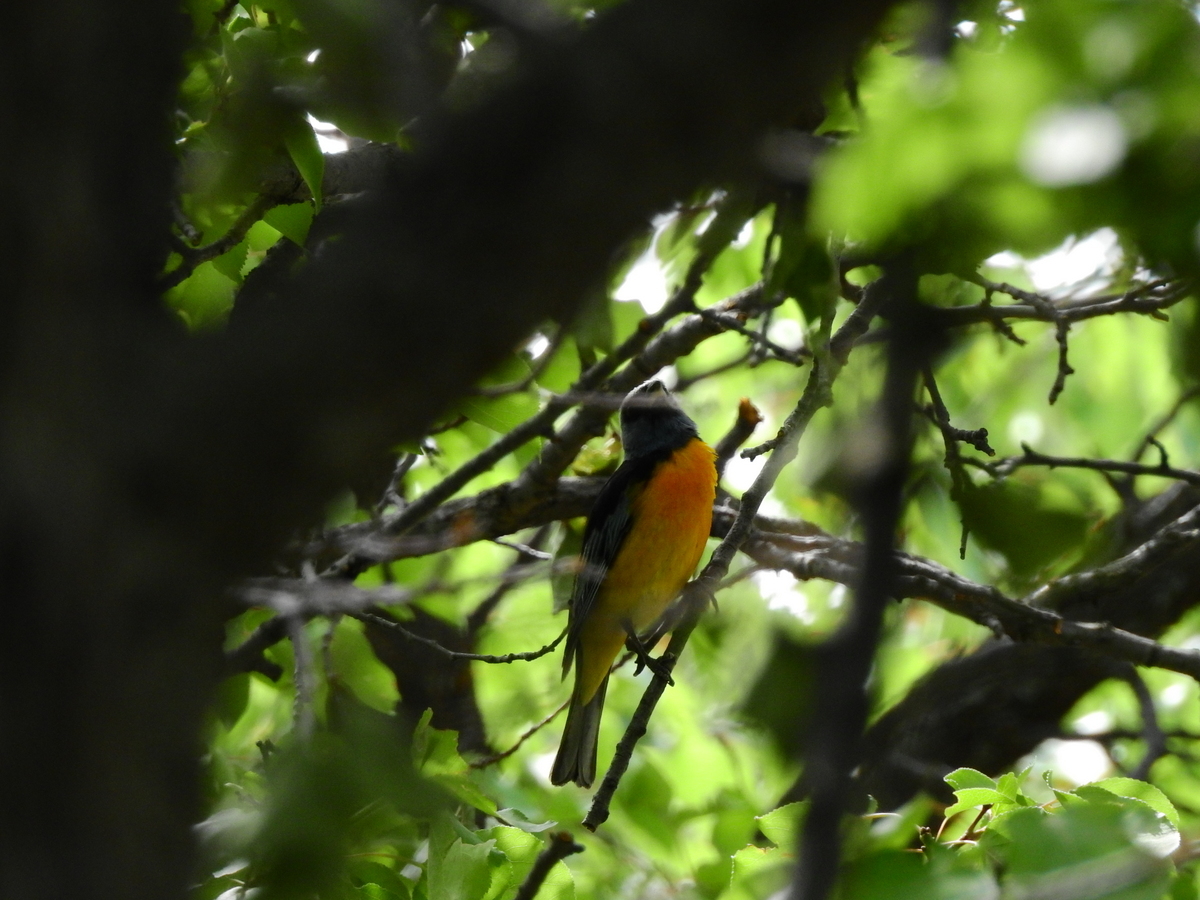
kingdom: Animalia
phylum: Chordata
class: Aves
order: Passeriformes
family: Thraupidae
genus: Rauenia
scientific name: Rauenia bonariensis
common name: Blue-and-yellow tanager
